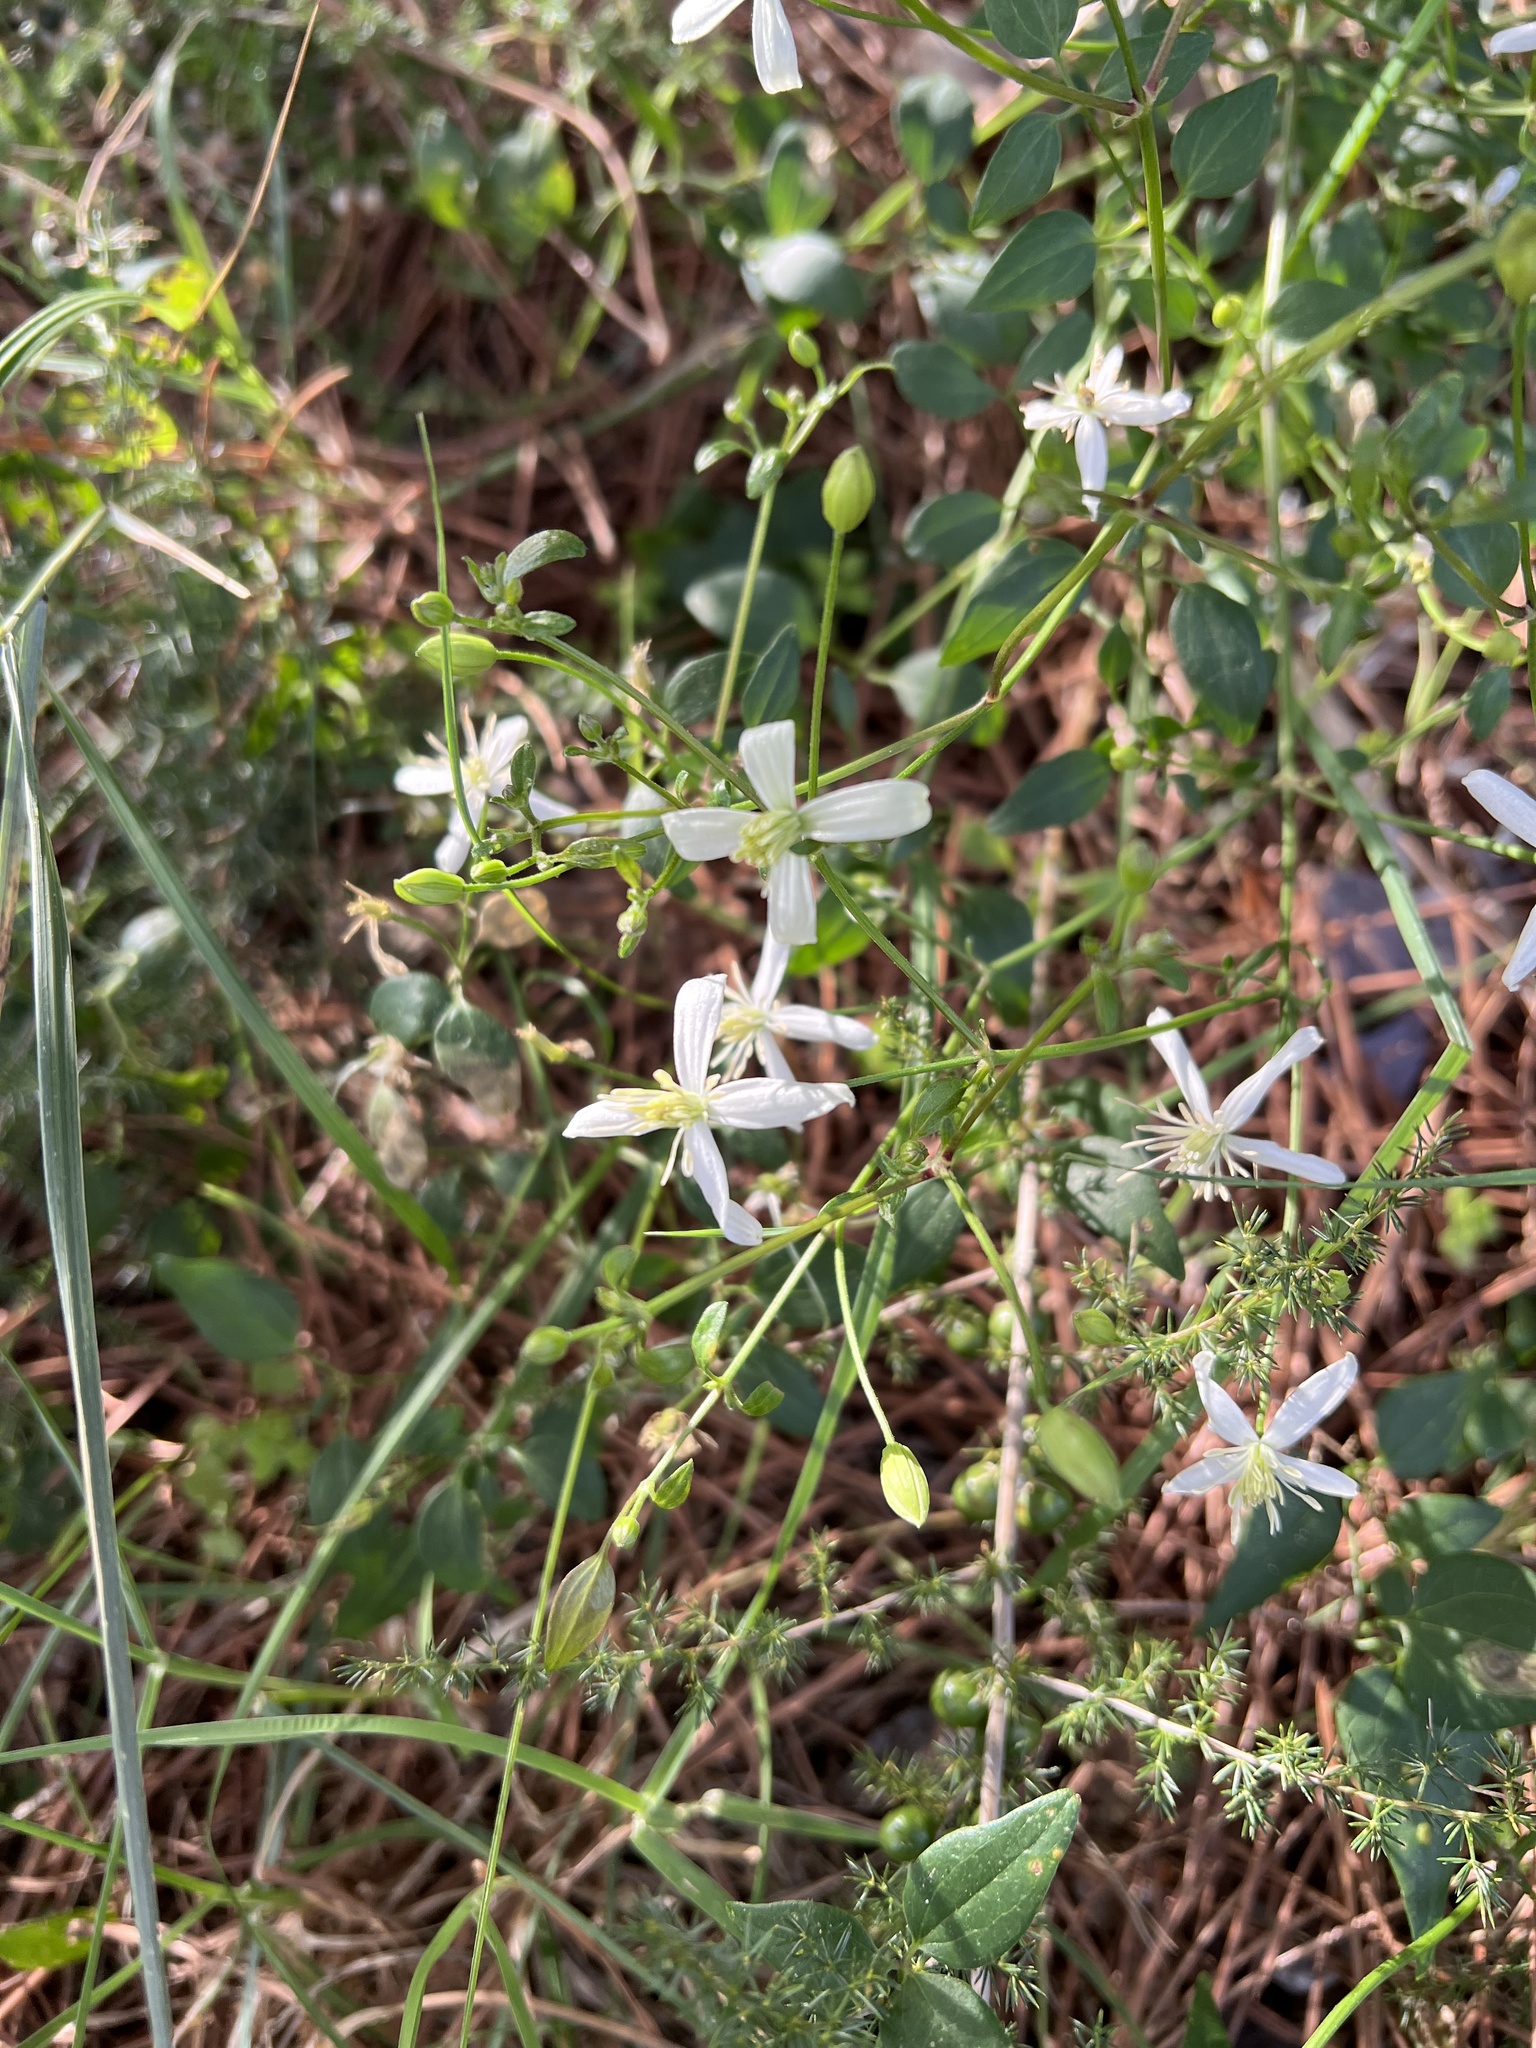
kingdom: Plantae
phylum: Tracheophyta
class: Magnoliopsida
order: Ranunculales
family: Ranunculaceae
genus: Clematis
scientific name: Clematis flammula
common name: Virgin's-bower
